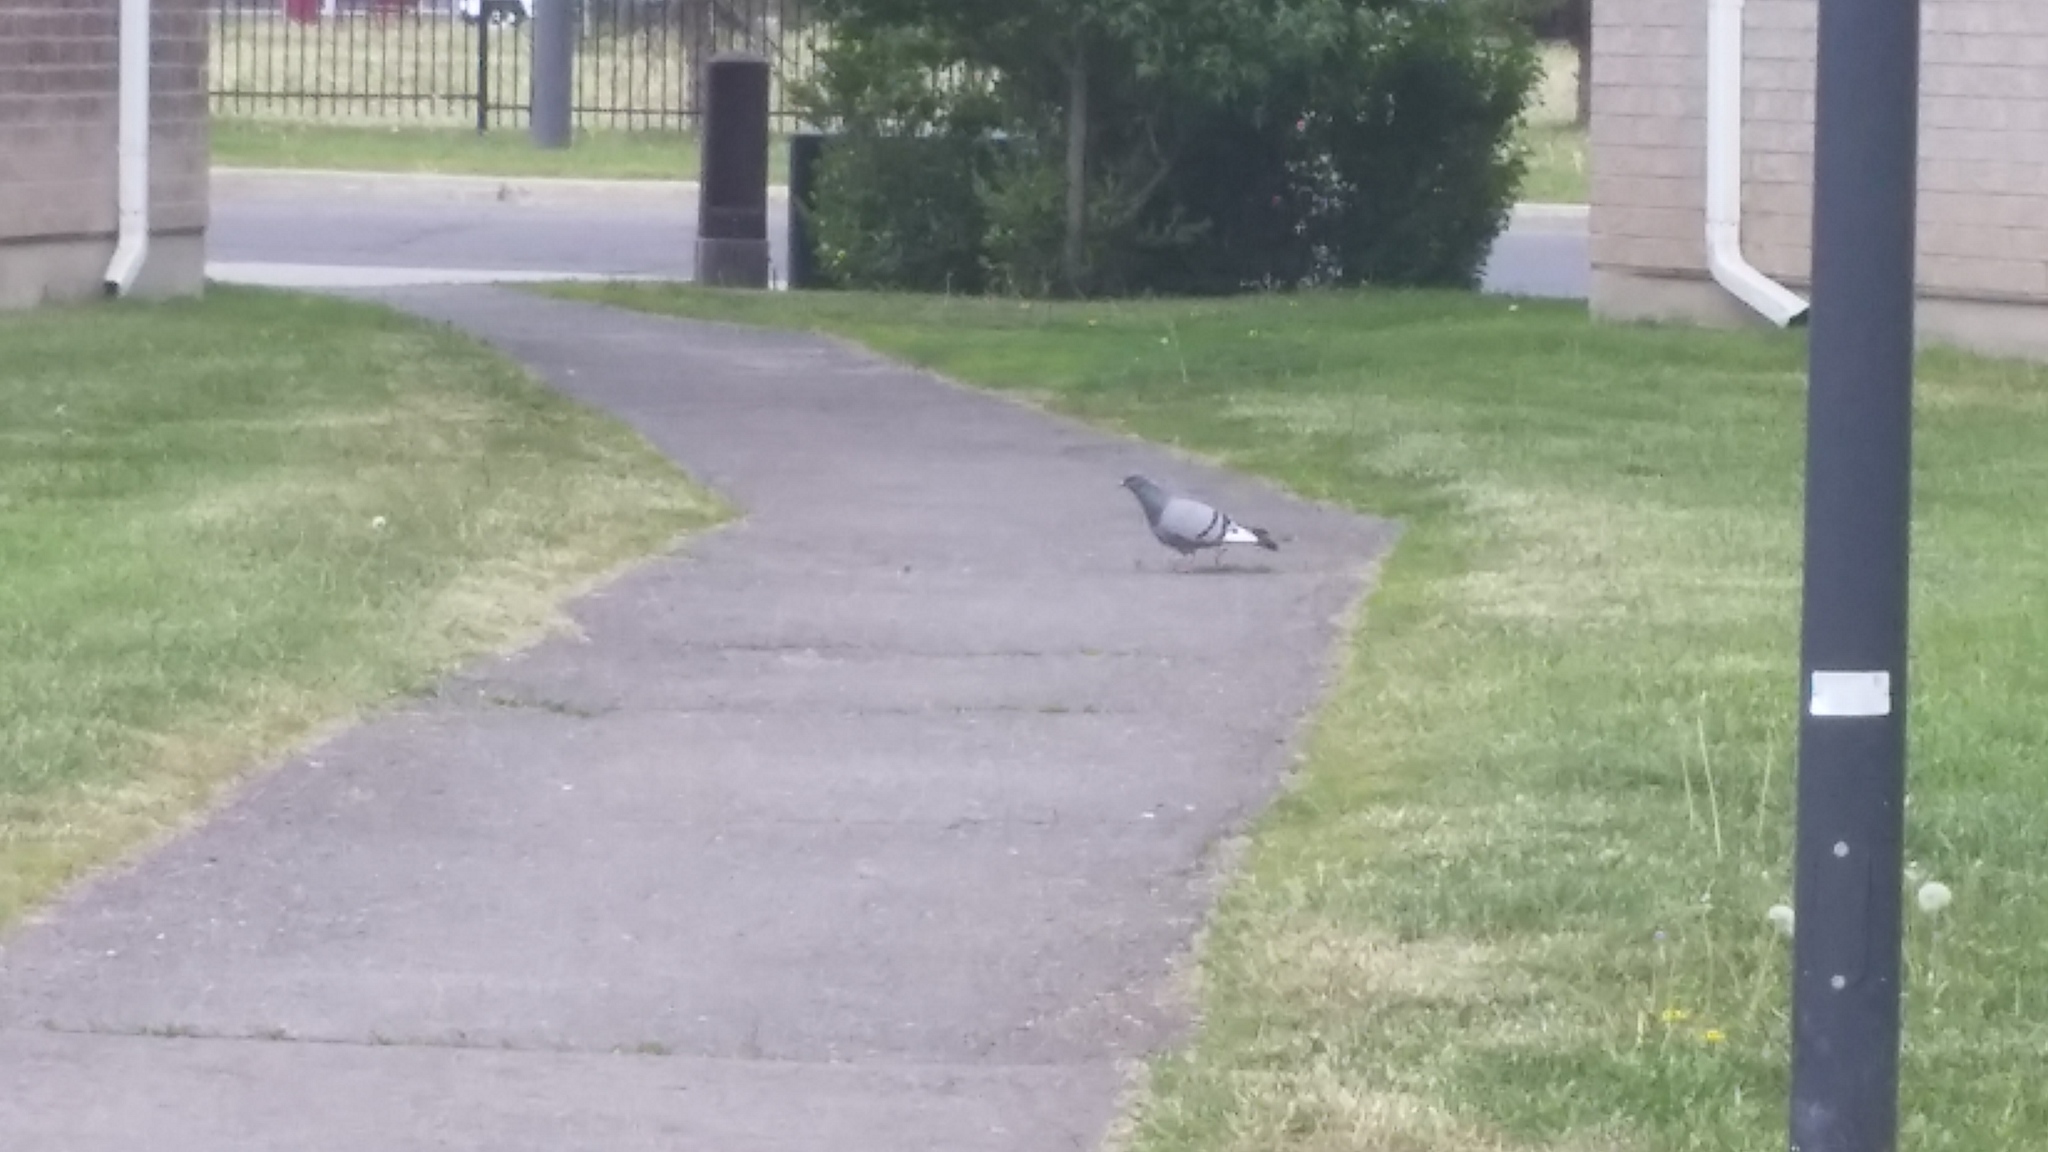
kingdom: Animalia
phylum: Chordata
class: Aves
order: Columbiformes
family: Columbidae
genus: Columba
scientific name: Columba livia
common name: Rock pigeon
